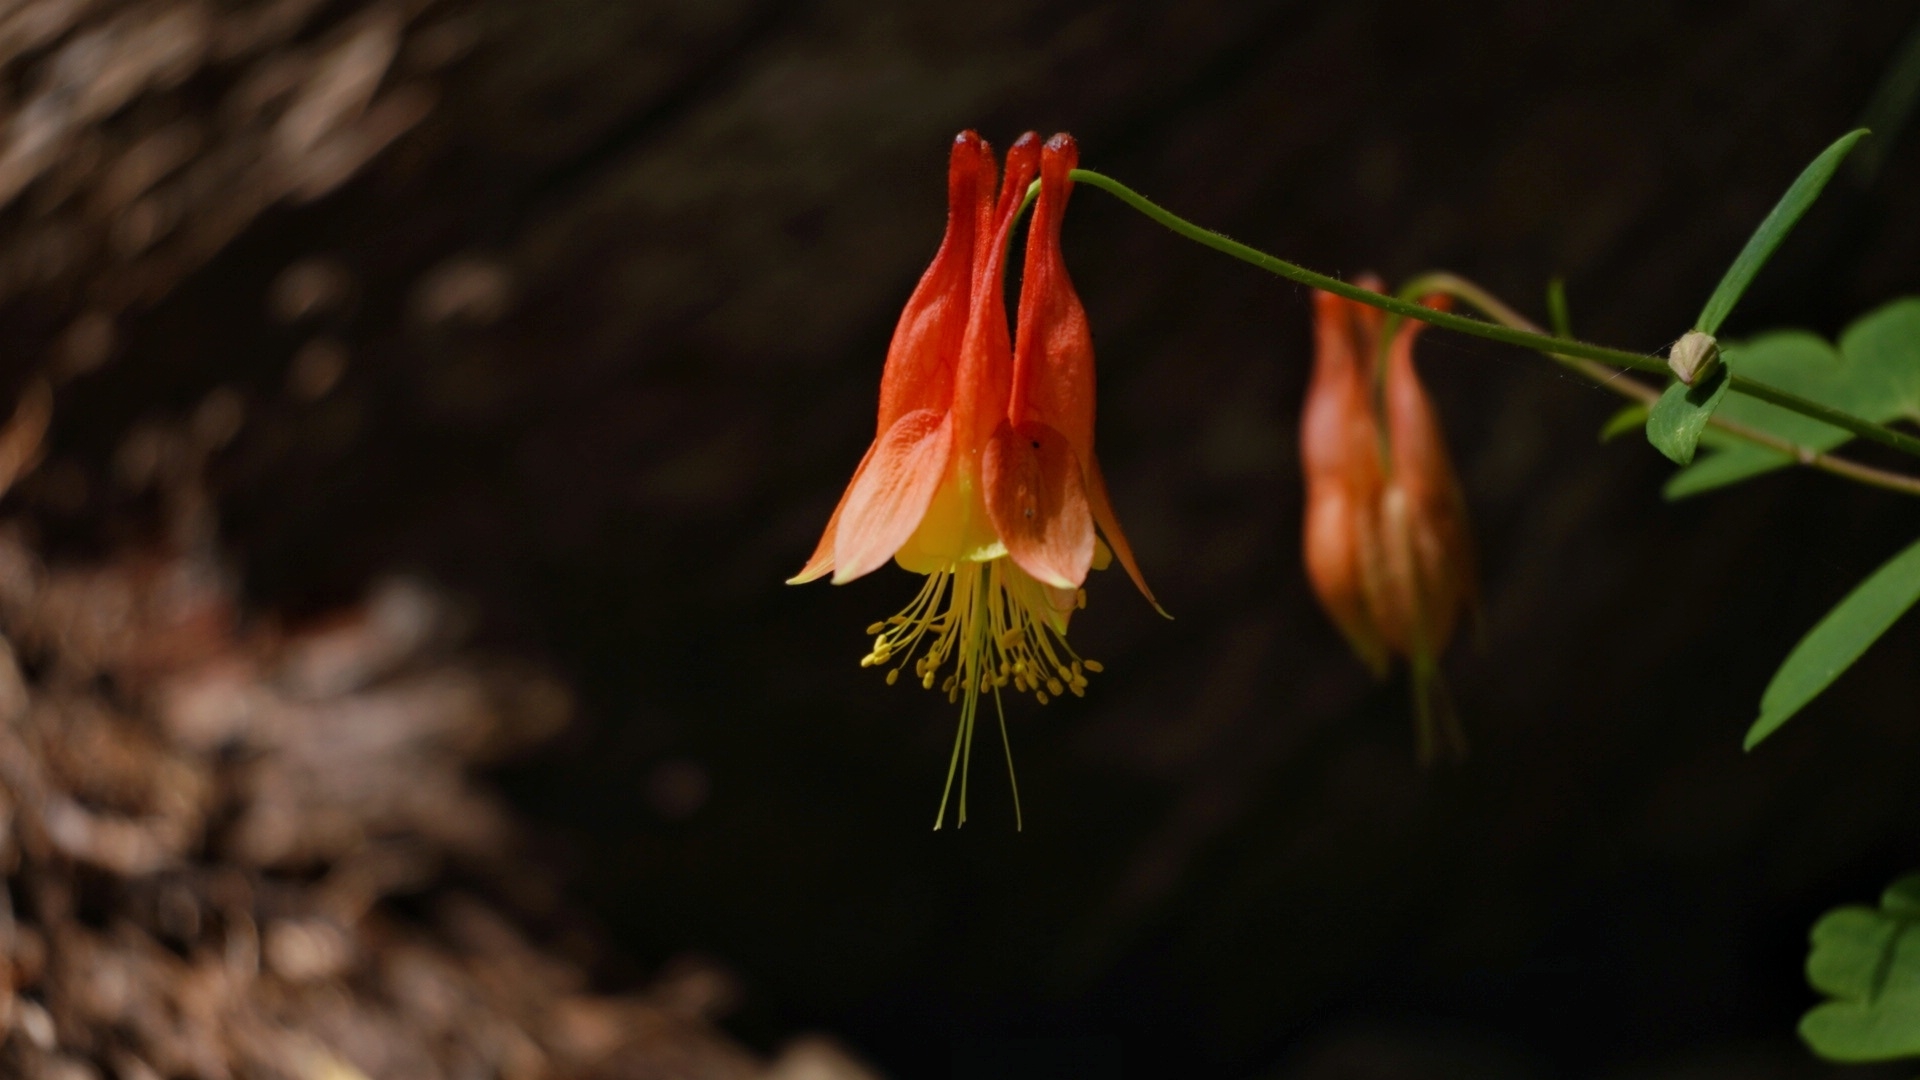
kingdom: Plantae
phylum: Tracheophyta
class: Magnoliopsida
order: Ranunculales
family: Ranunculaceae
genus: Aquilegia
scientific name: Aquilegia canadensis
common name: American columbine
